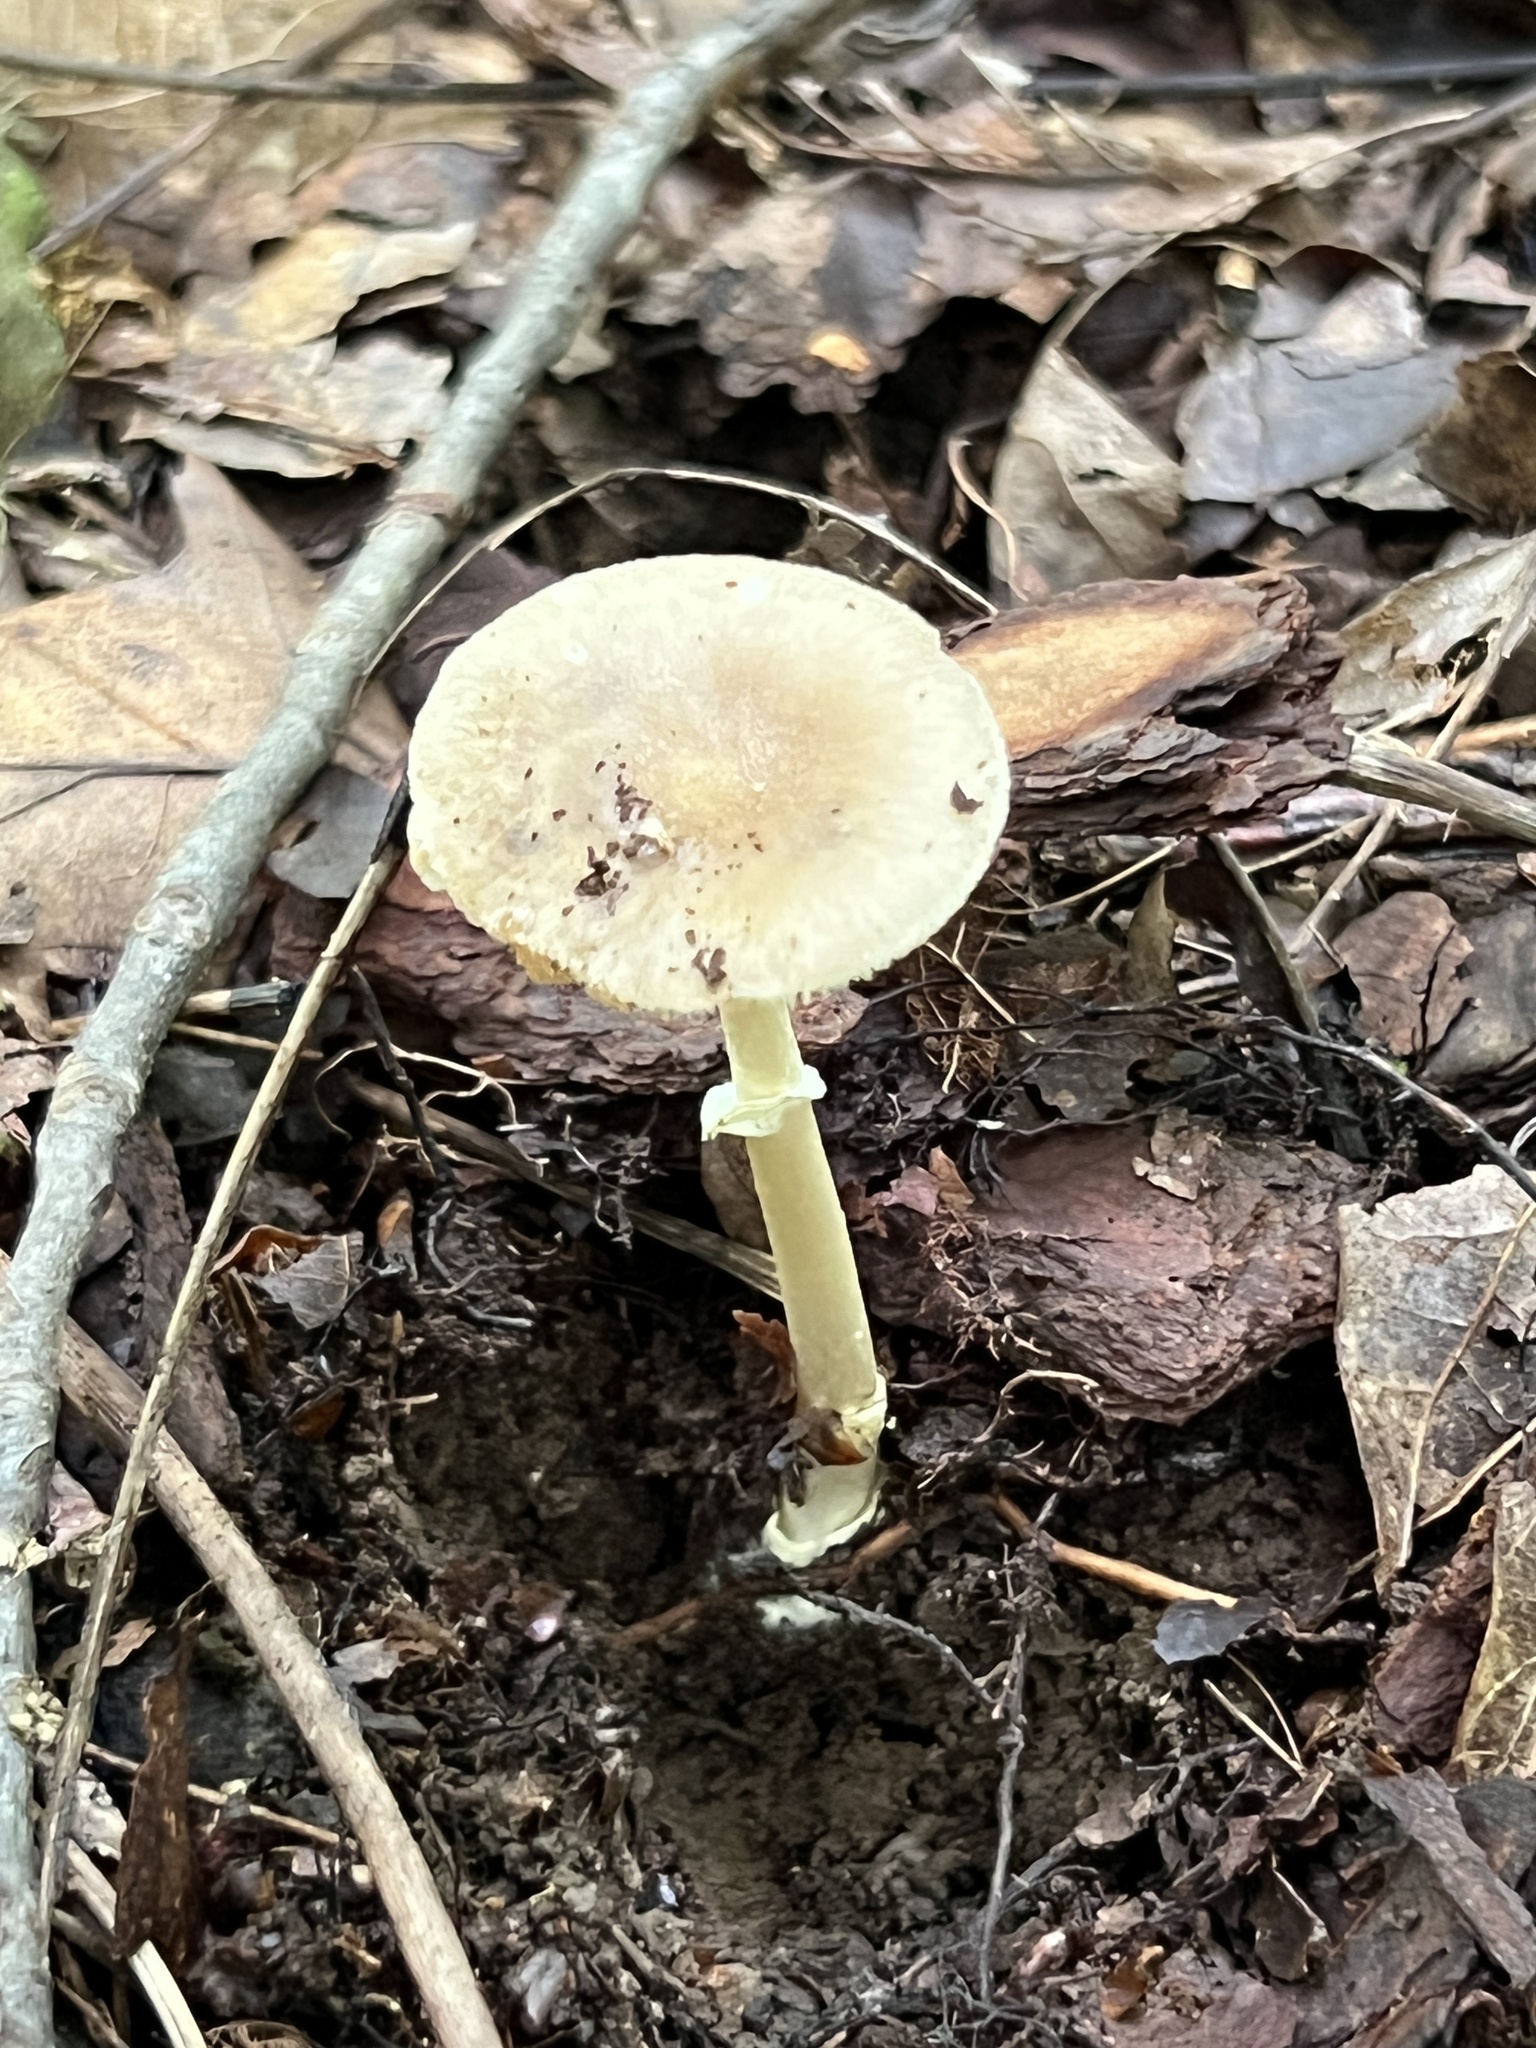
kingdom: Fungi
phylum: Basidiomycota
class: Agaricomycetes
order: Agaricales
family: Amanitaceae
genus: Amanita
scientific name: Amanita solaniolens
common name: Old potato amanita
